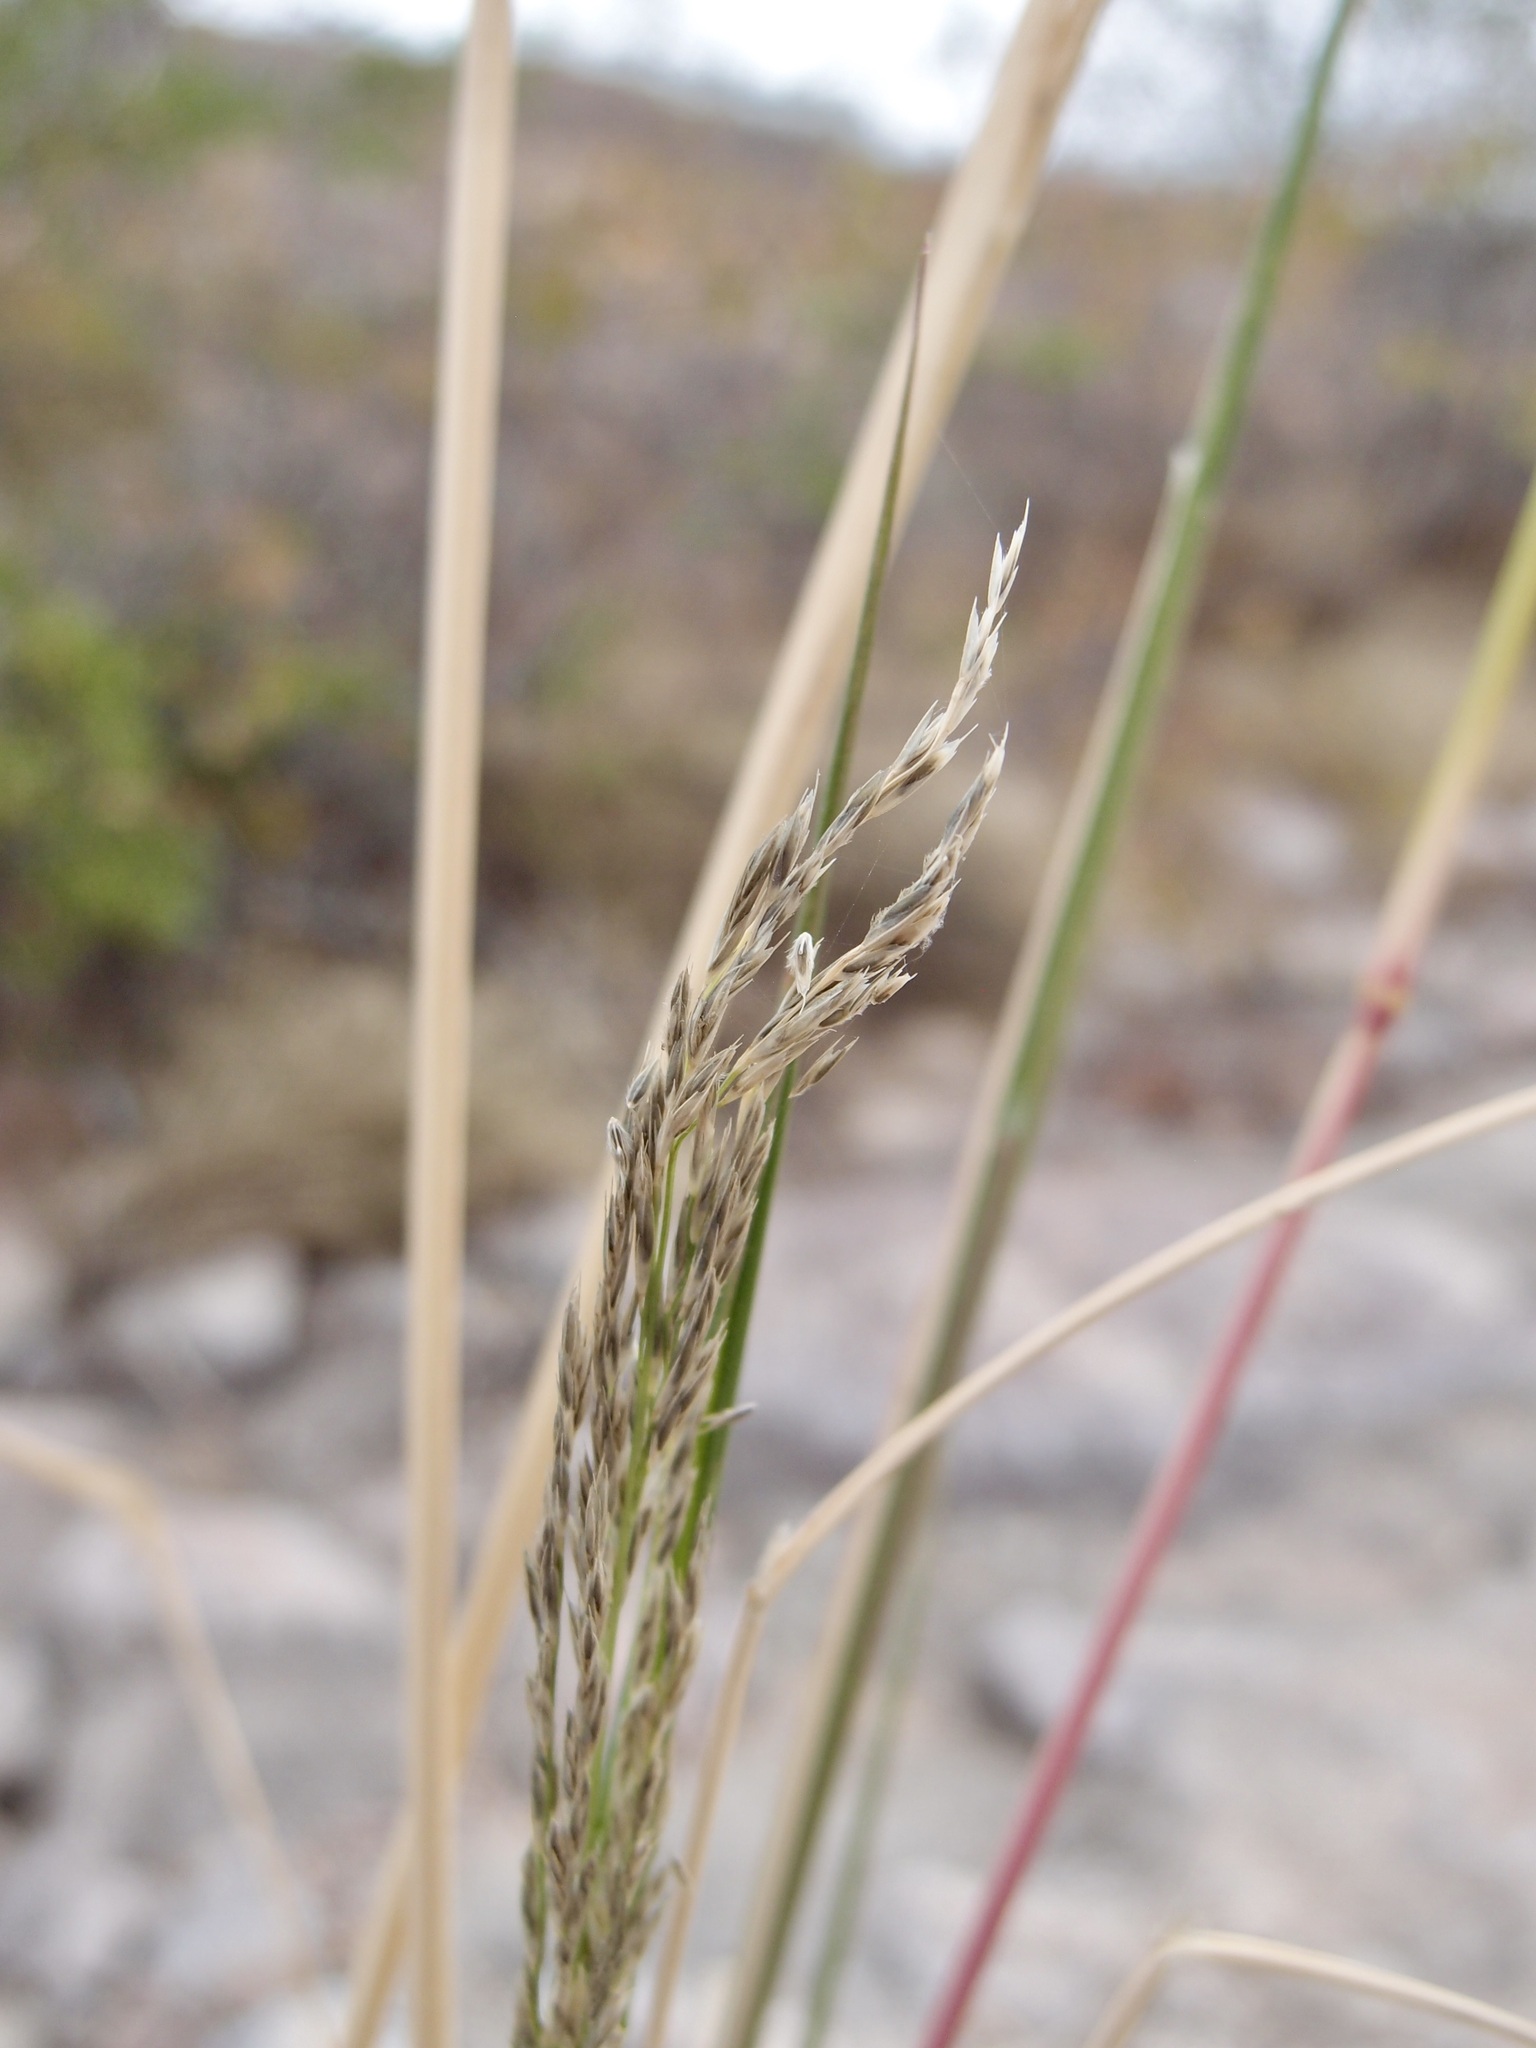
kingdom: Plantae
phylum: Tracheophyta
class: Liliopsida
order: Poales
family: Poaceae
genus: Diplachne
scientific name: Diplachne fusca
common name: Brown beetle grass
